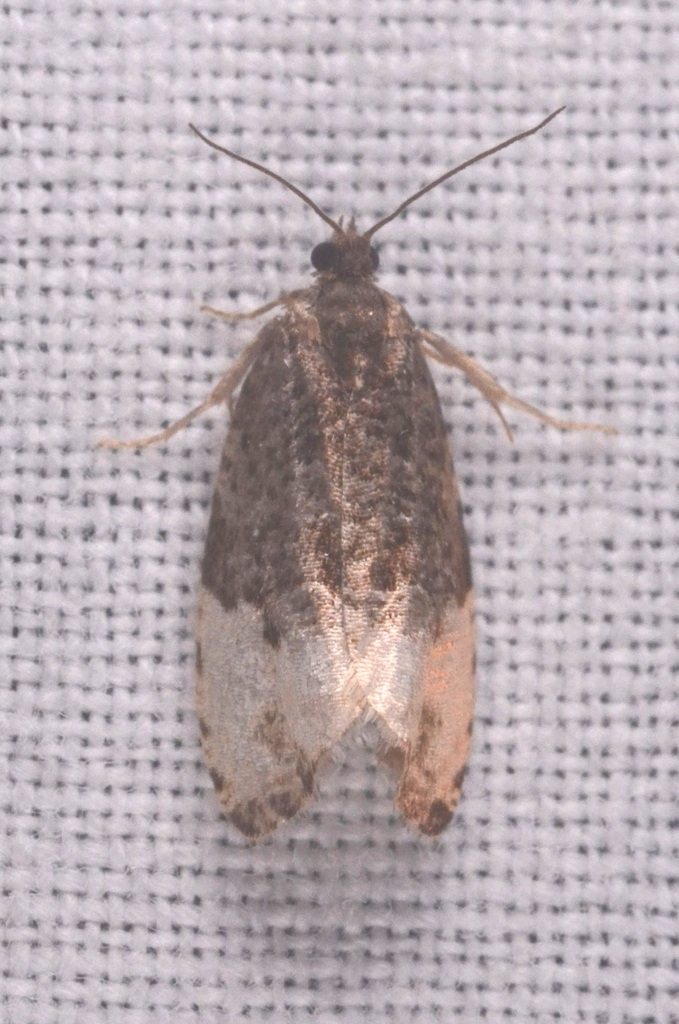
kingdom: Animalia
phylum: Arthropoda
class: Insecta
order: Lepidoptera
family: Tortricidae
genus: Hedya
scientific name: Hedya pruniana
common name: Plum tortrix
